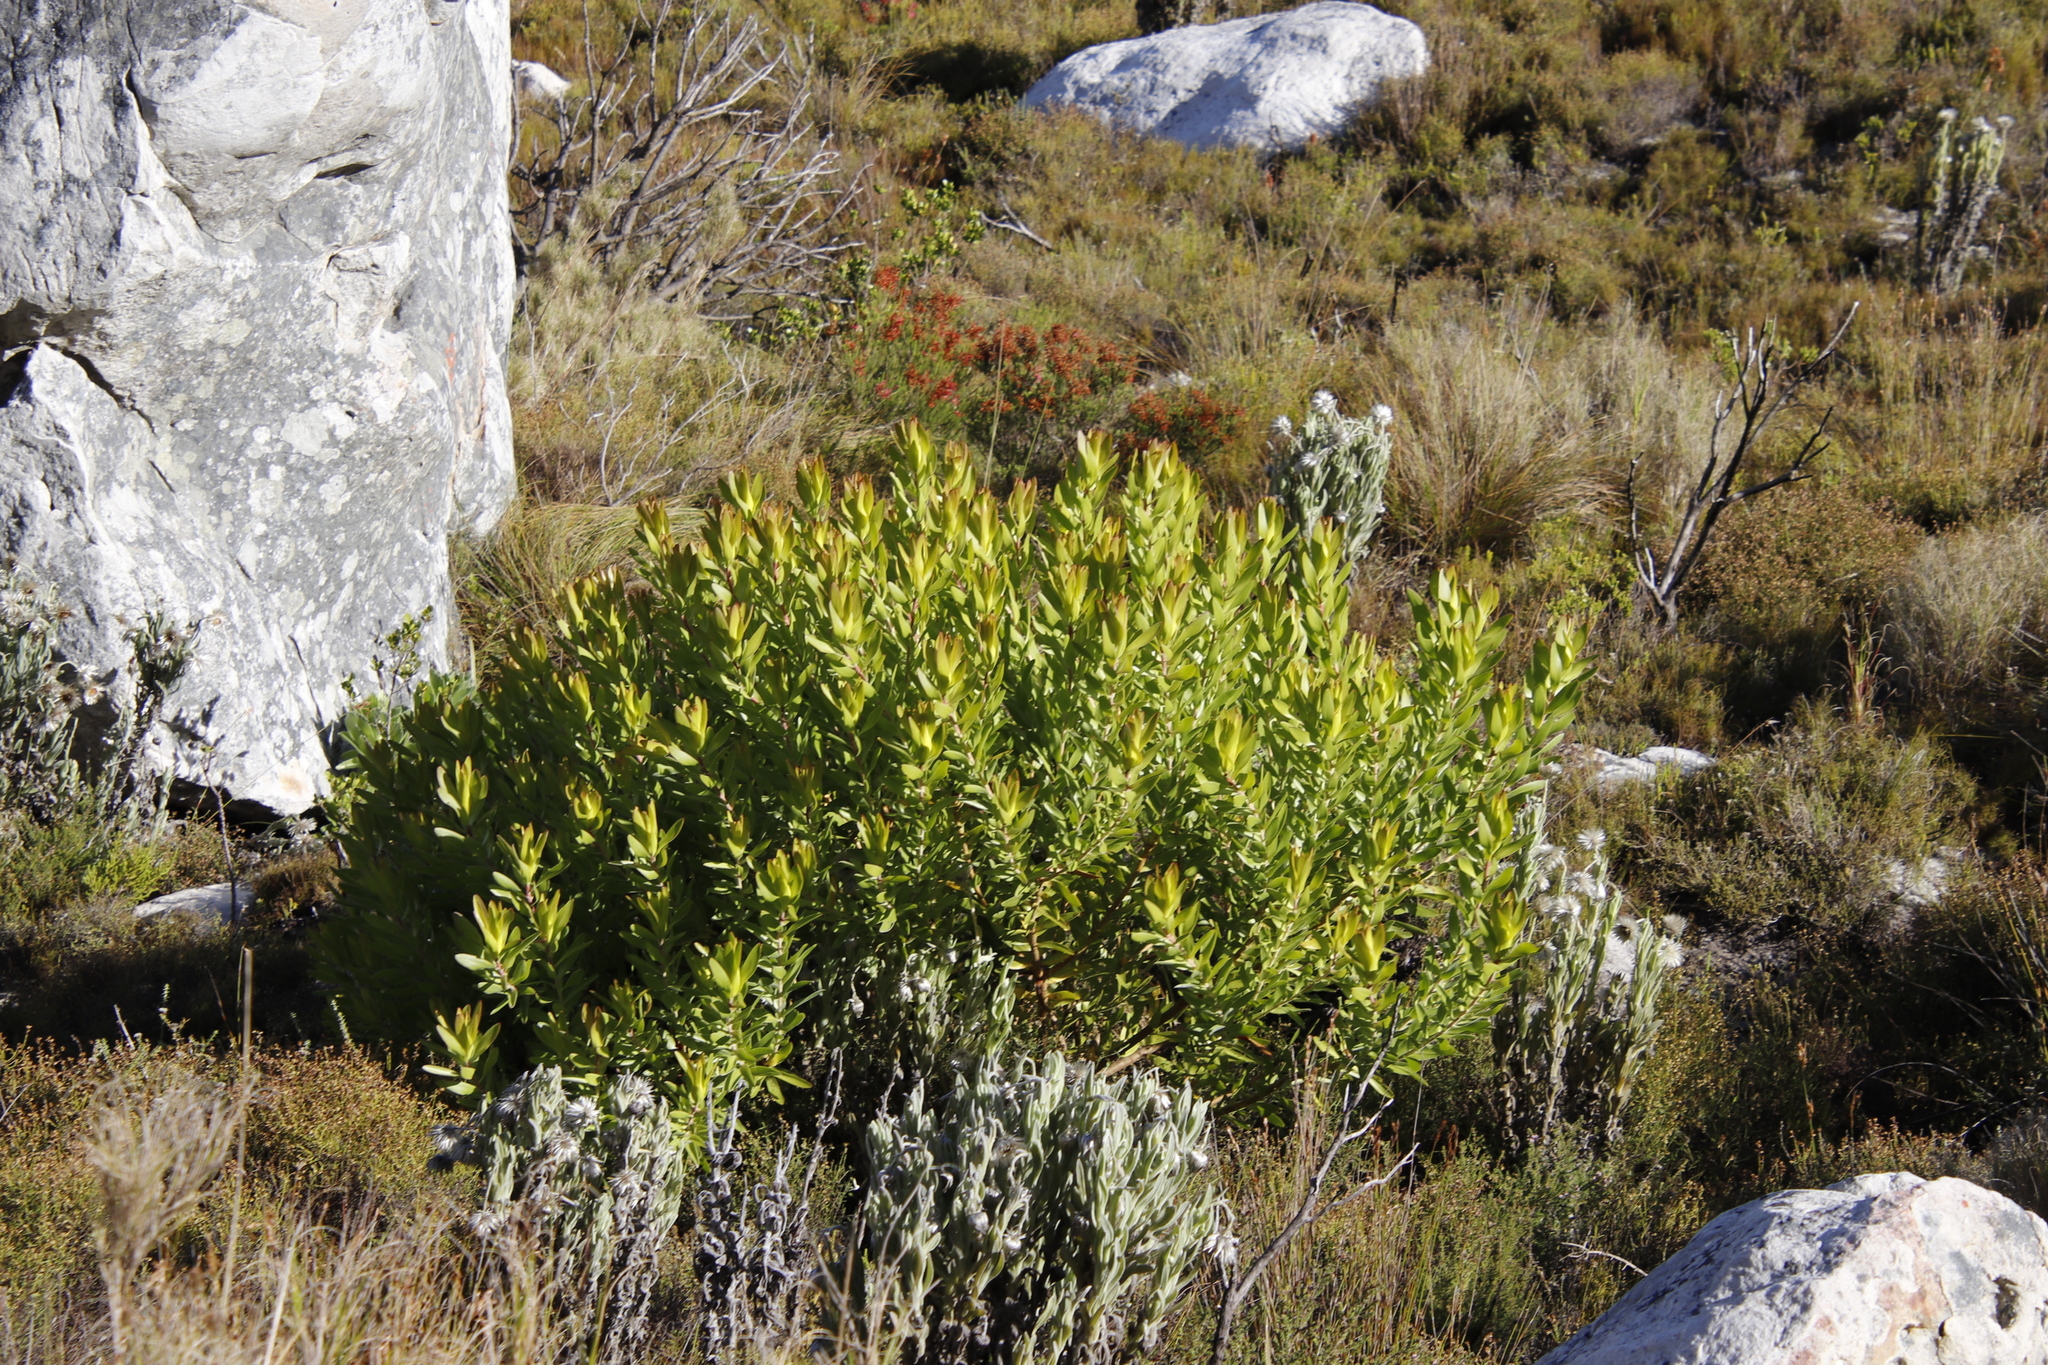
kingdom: Plantae
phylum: Tracheophyta
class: Magnoliopsida
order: Proteales
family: Proteaceae
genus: Leucadendron
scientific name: Leucadendron laureolum
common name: Golden sunshinebush
